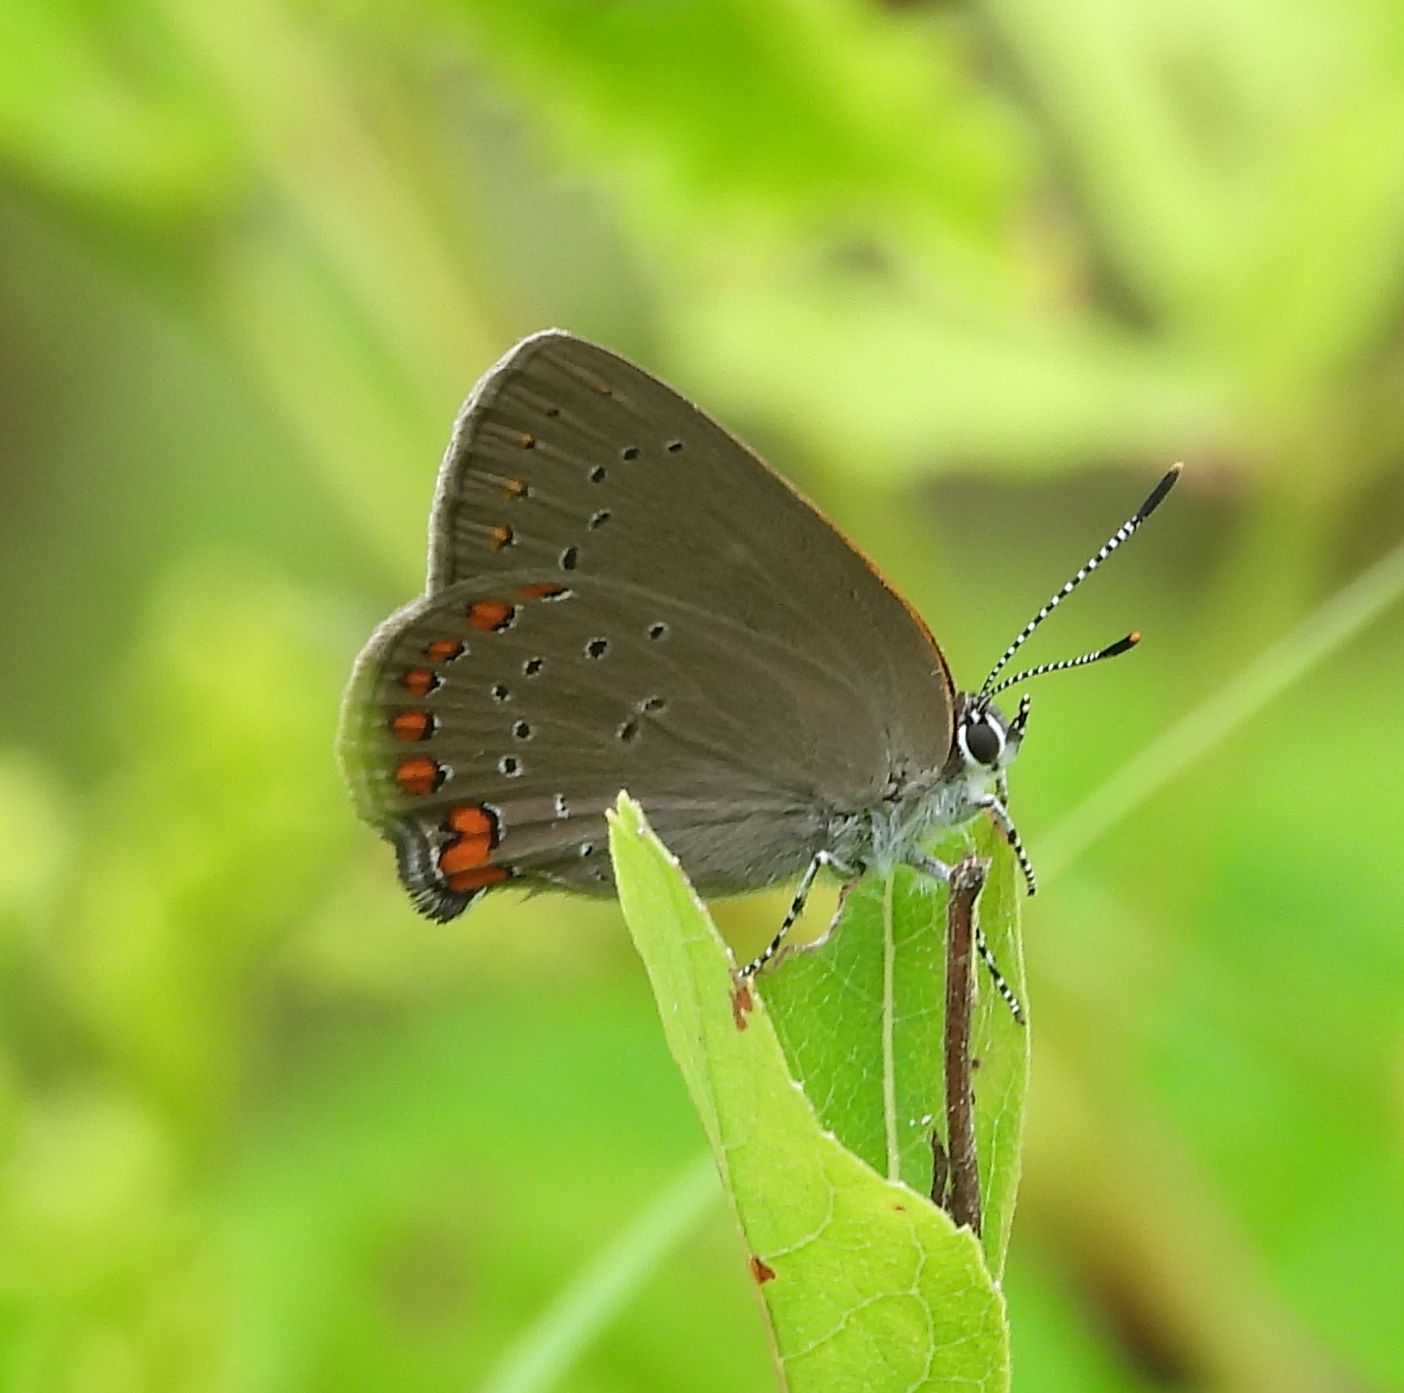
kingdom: Animalia
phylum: Arthropoda
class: Insecta
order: Lepidoptera
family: Lycaenidae
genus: Harkenclenus
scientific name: Harkenclenus titus
